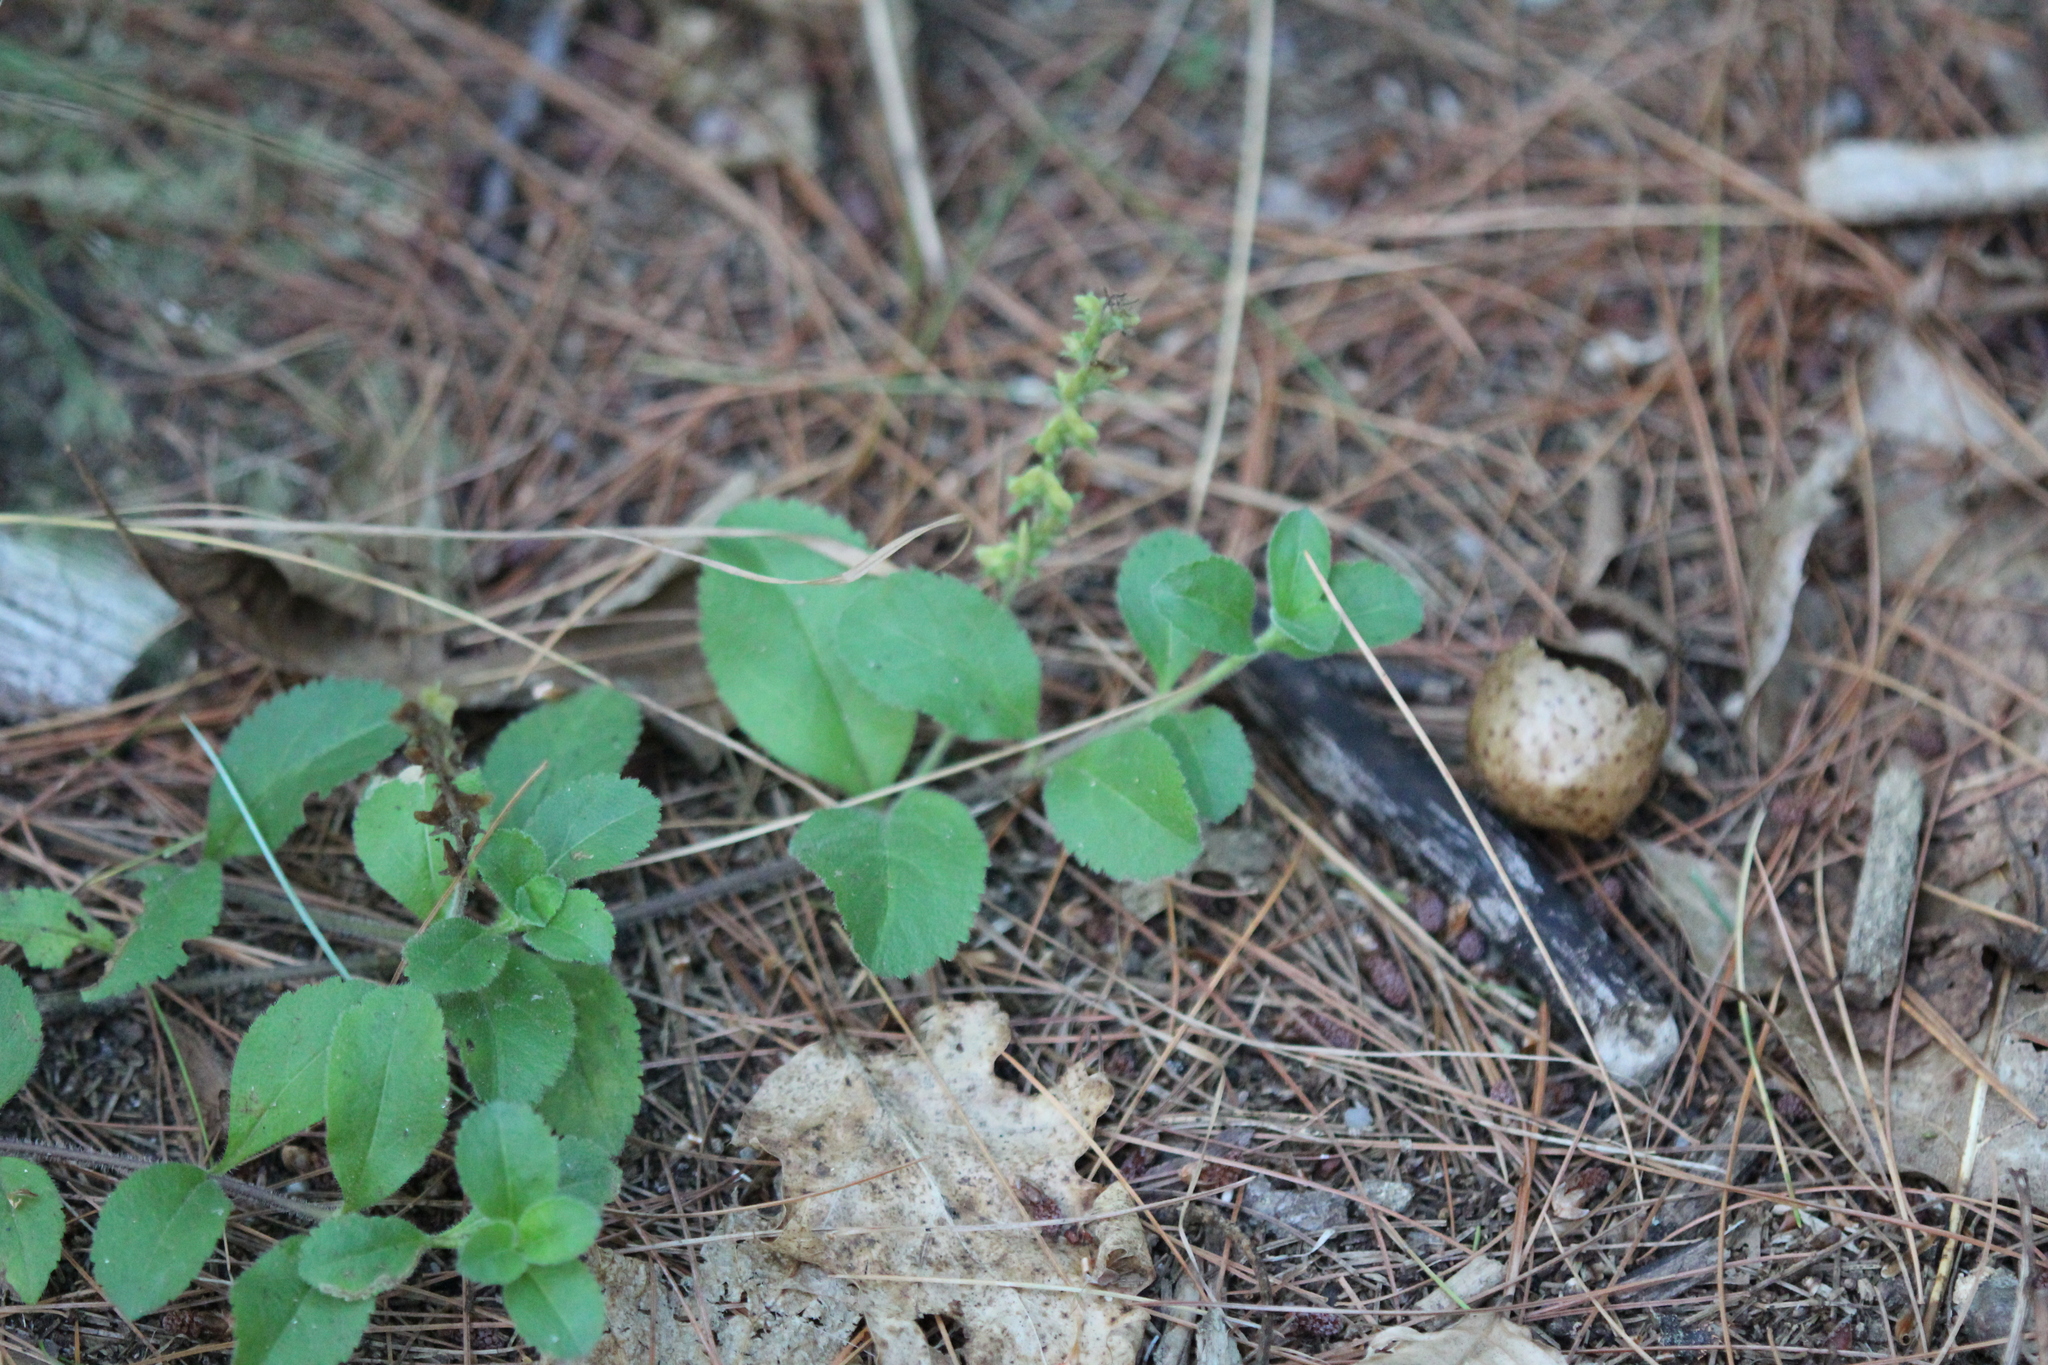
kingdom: Plantae
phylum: Tracheophyta
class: Magnoliopsida
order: Lamiales
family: Plantaginaceae
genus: Veronica
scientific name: Veronica officinalis
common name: Common speedwell
